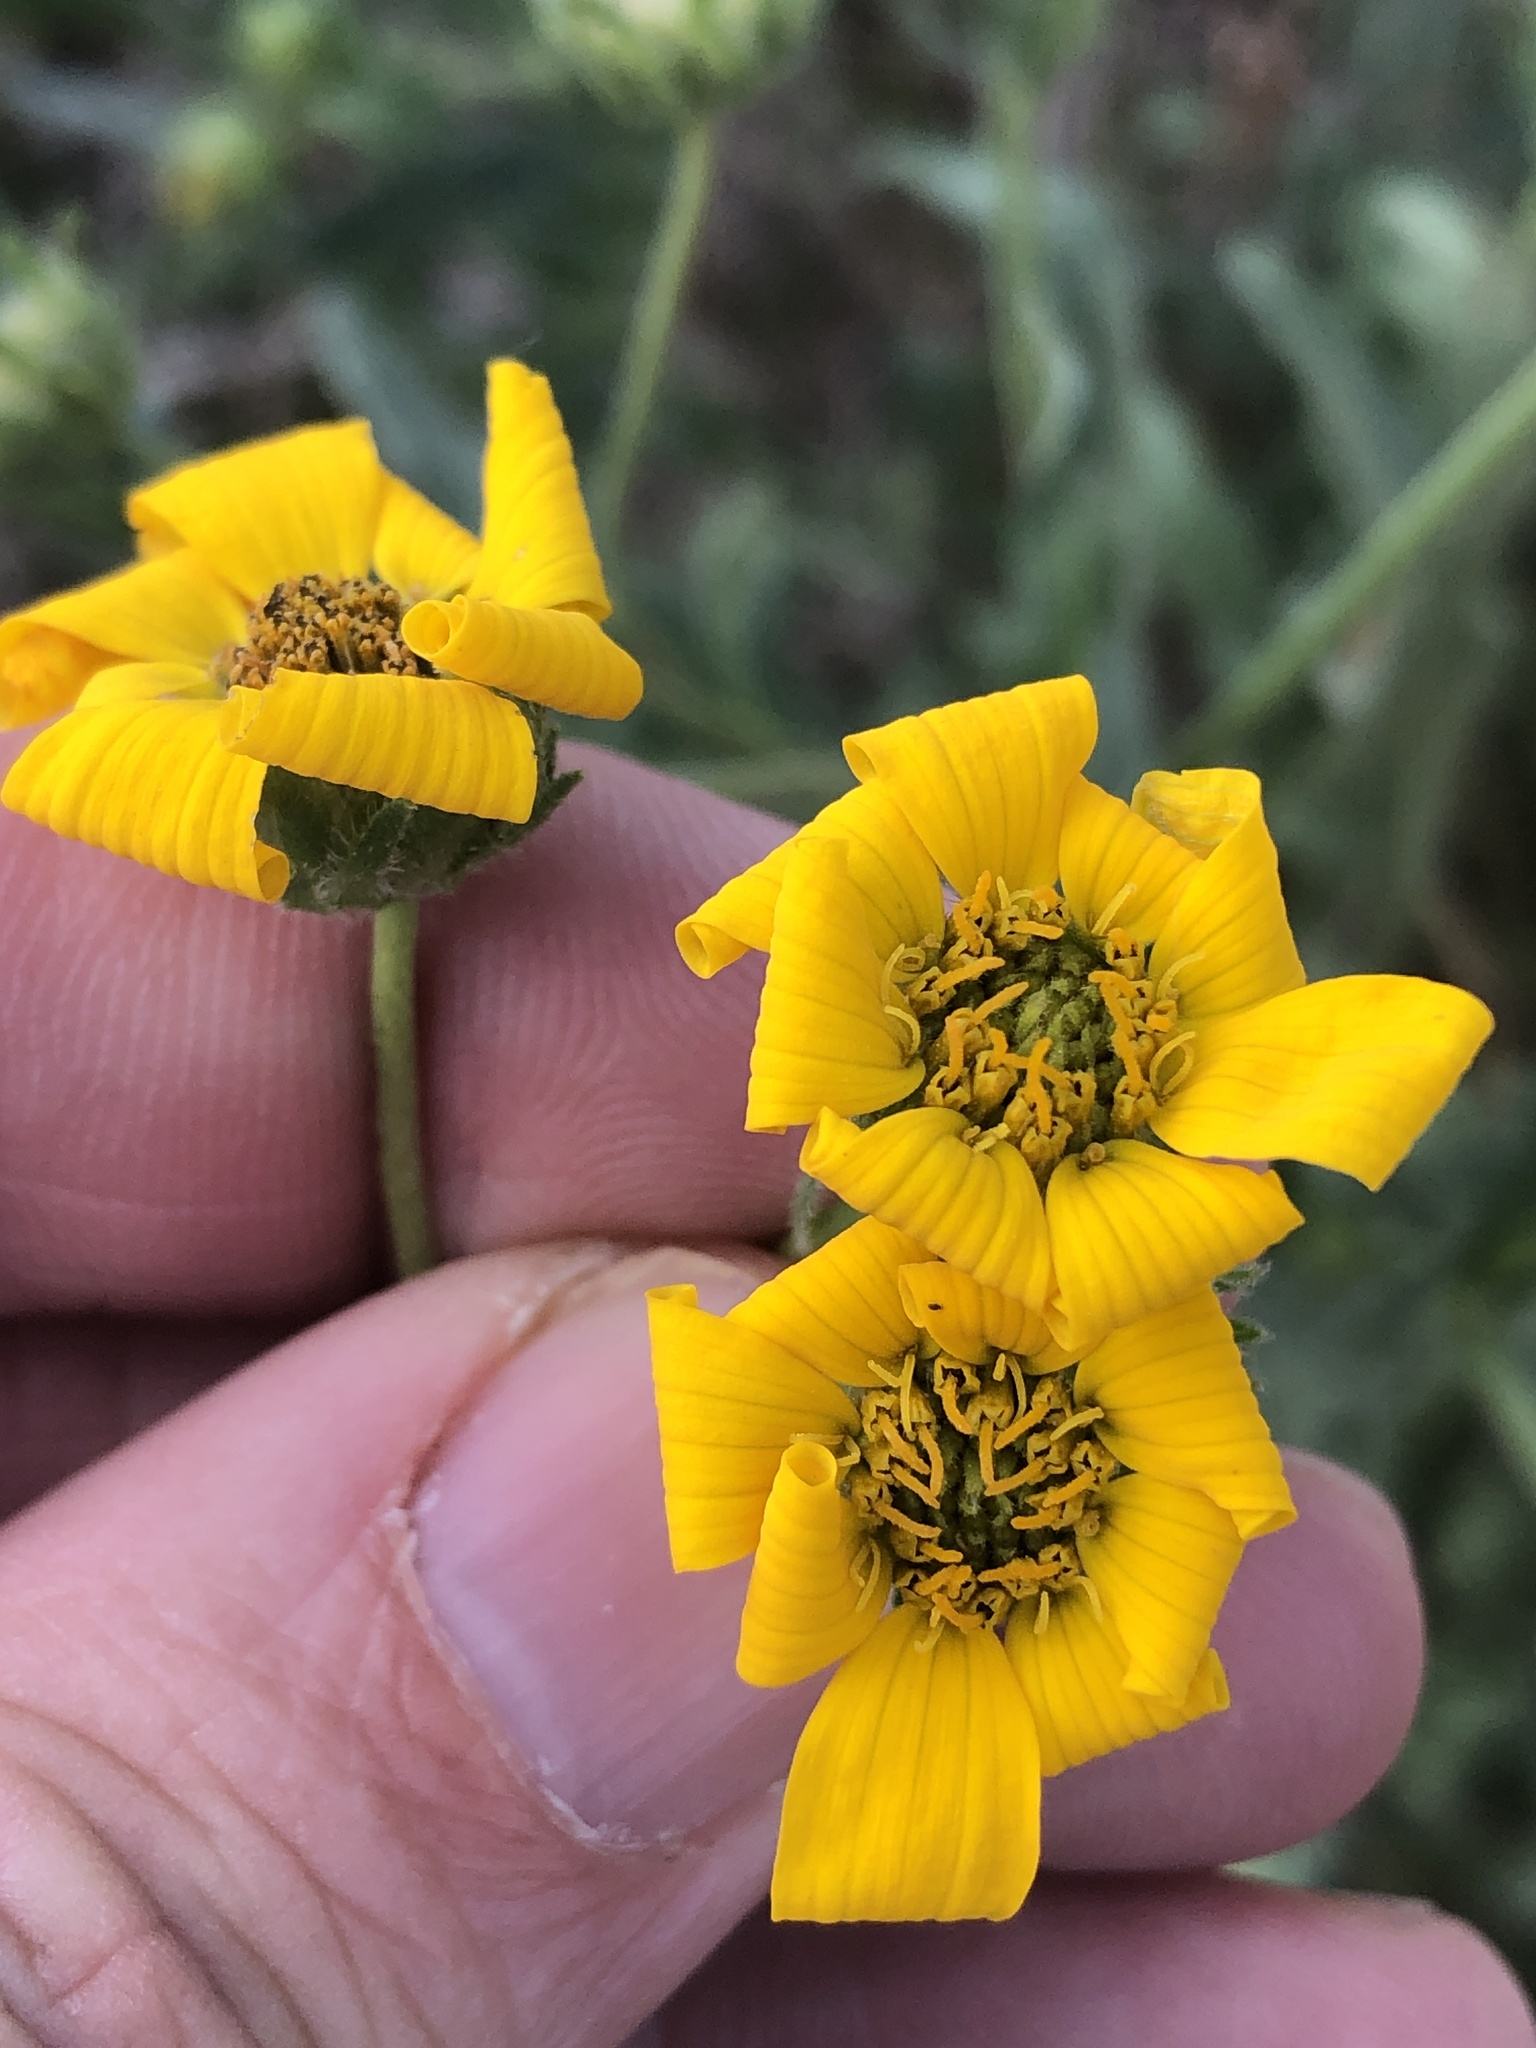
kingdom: Plantae
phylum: Tracheophyta
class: Magnoliopsida
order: Asterales
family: Asteraceae
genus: Engelmannia
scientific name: Engelmannia peristenia
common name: Engelmann's daisy
